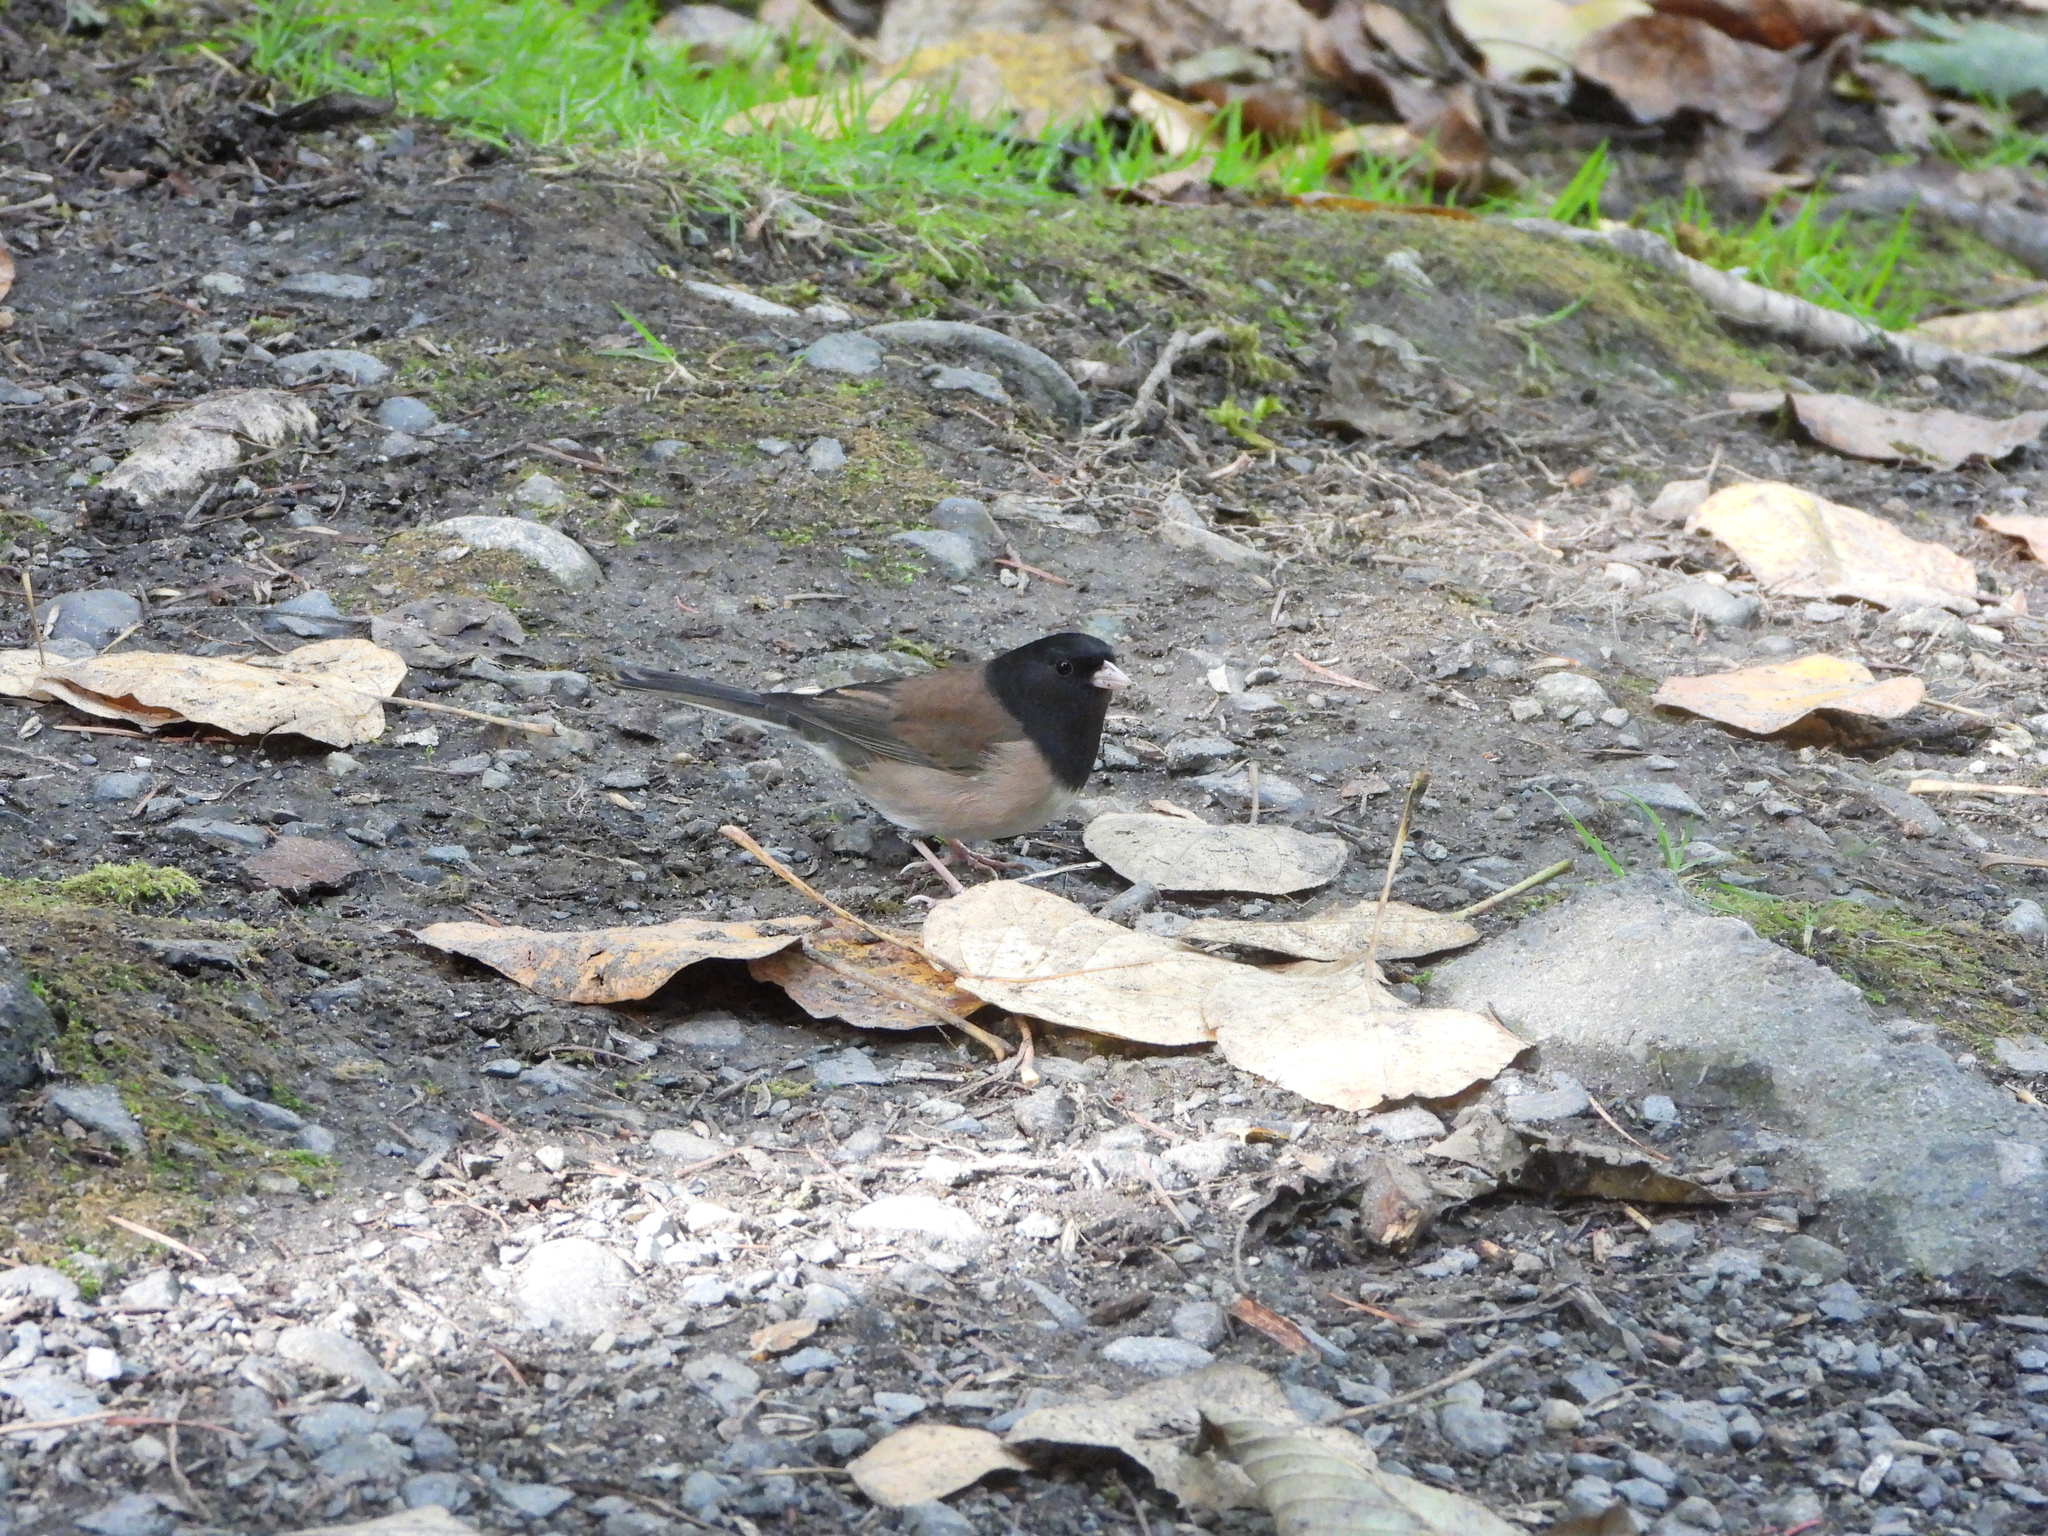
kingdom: Animalia
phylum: Chordata
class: Aves
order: Passeriformes
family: Passerellidae
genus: Junco
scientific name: Junco hyemalis
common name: Dark-eyed junco
